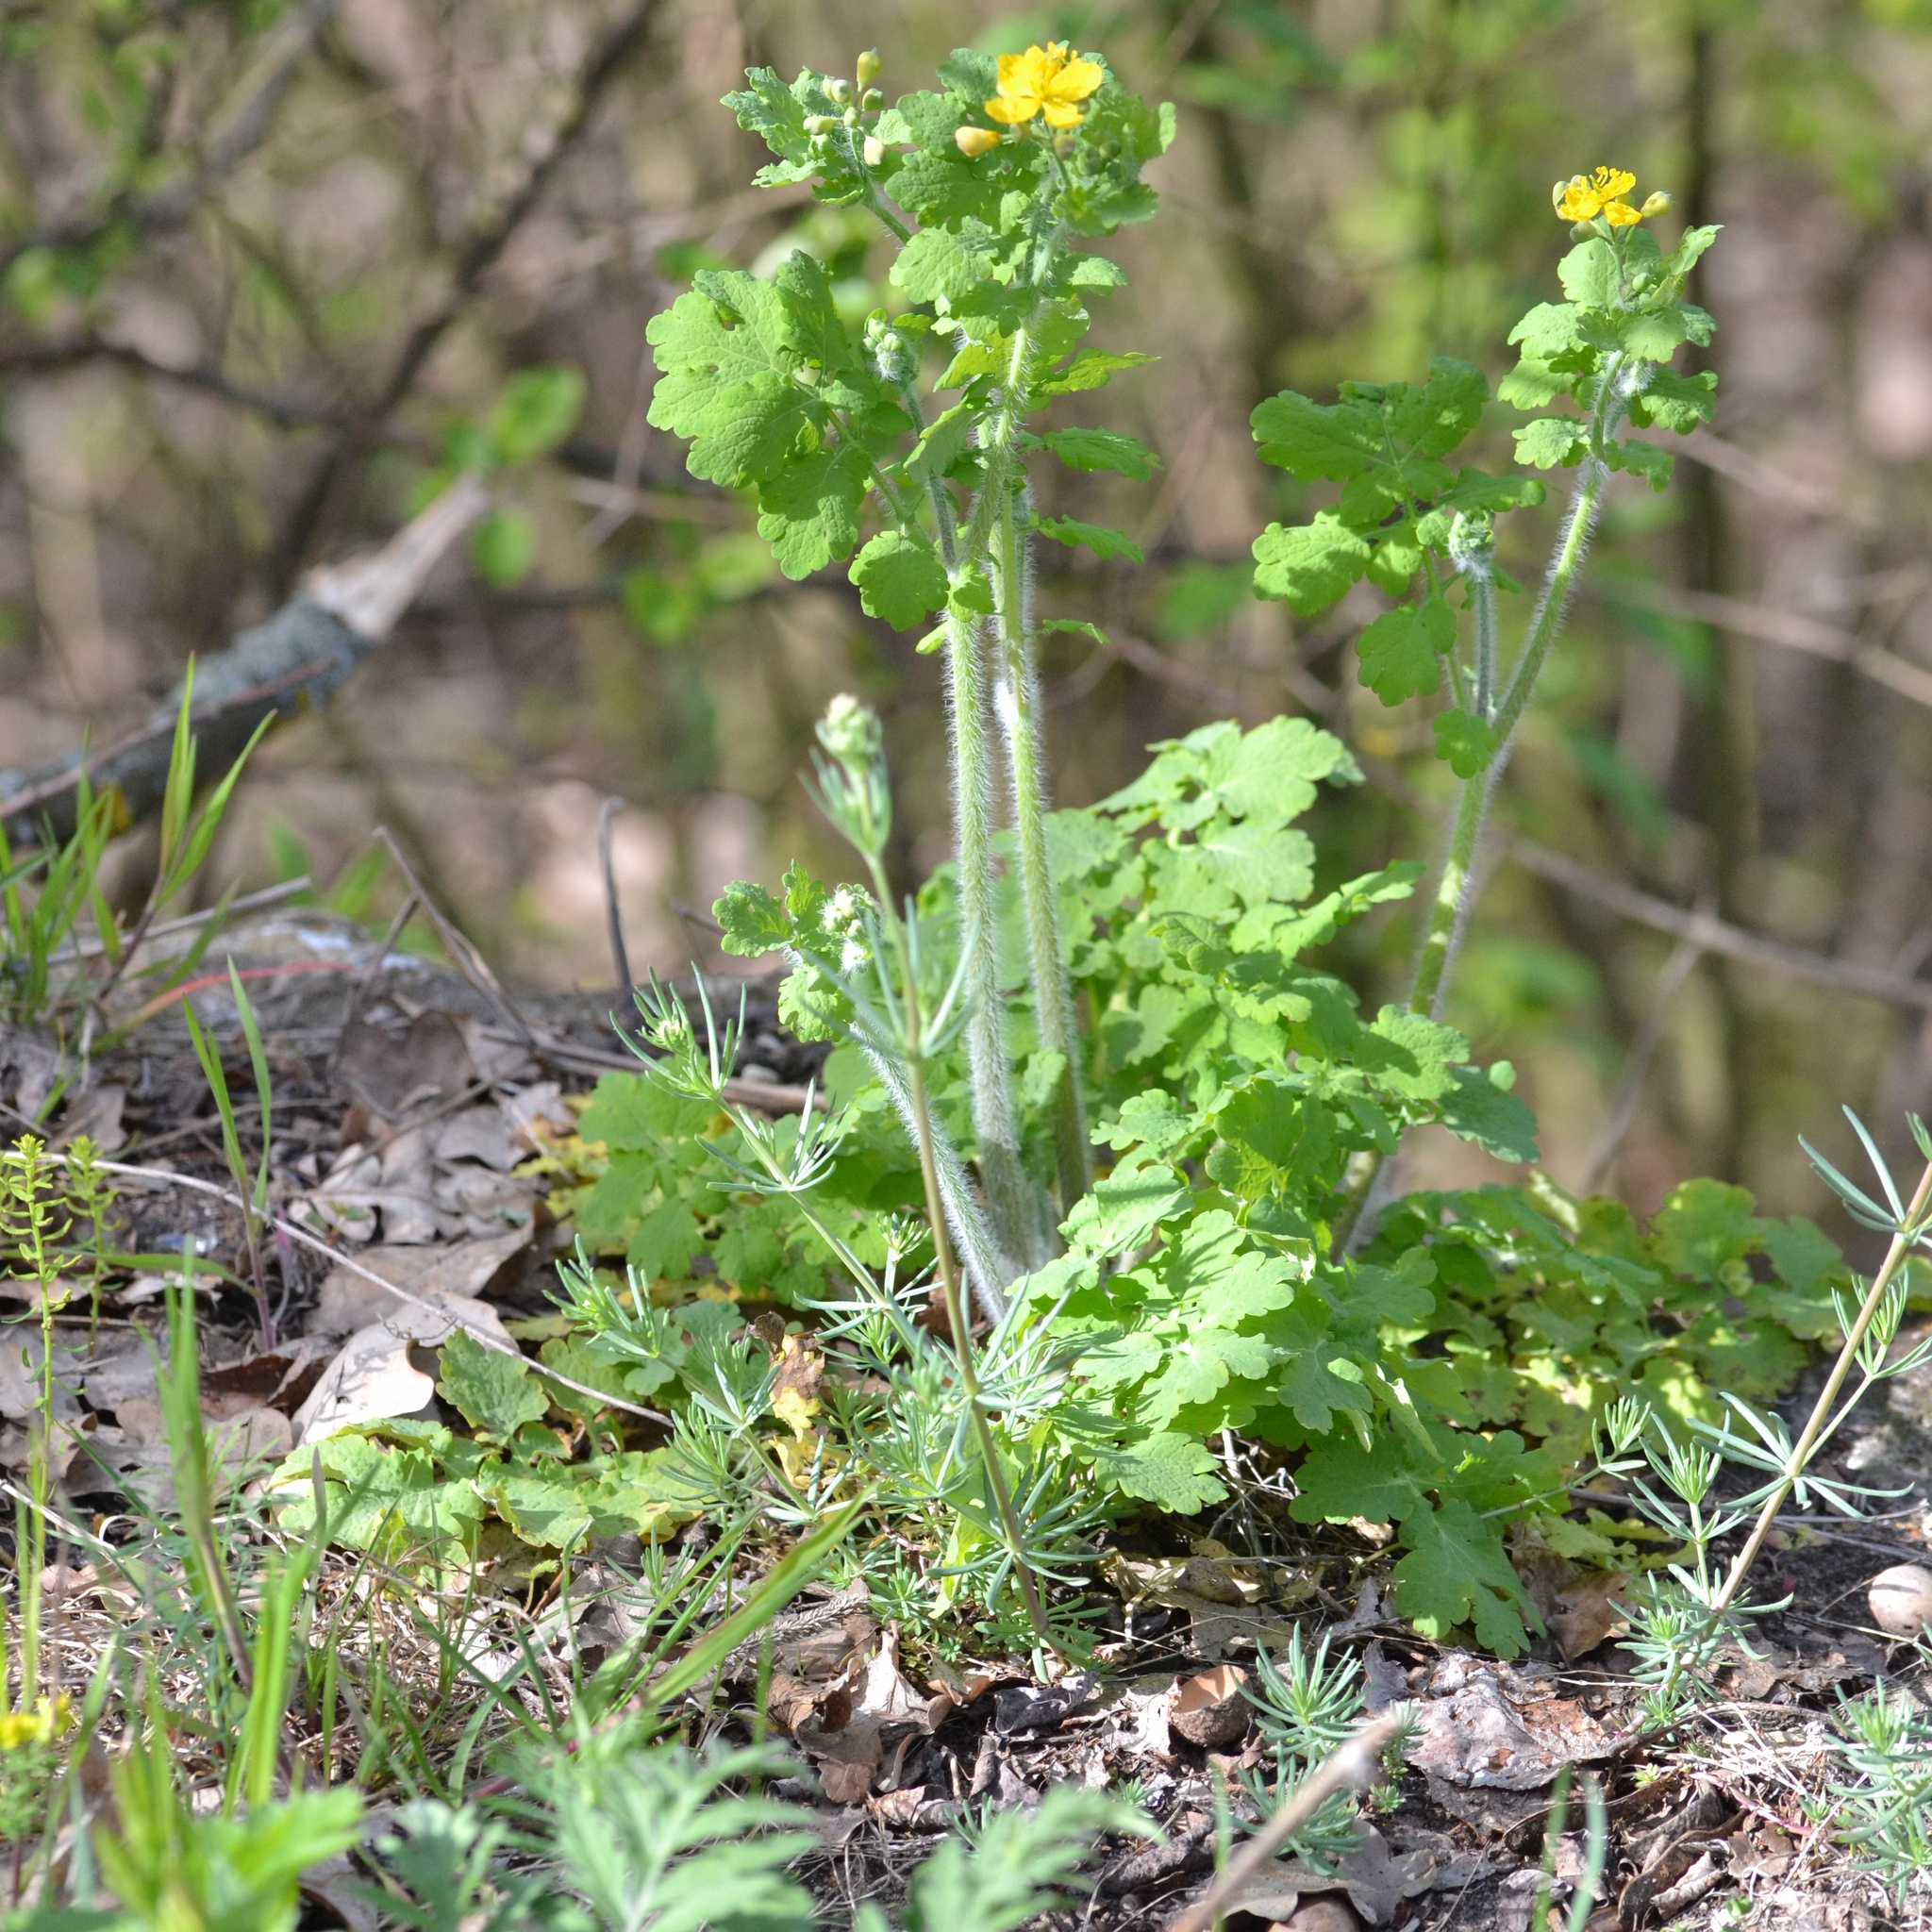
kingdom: Plantae
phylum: Tracheophyta
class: Magnoliopsida
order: Ranunculales
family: Papaveraceae
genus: Chelidonium
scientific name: Chelidonium majus
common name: Greater celandine
